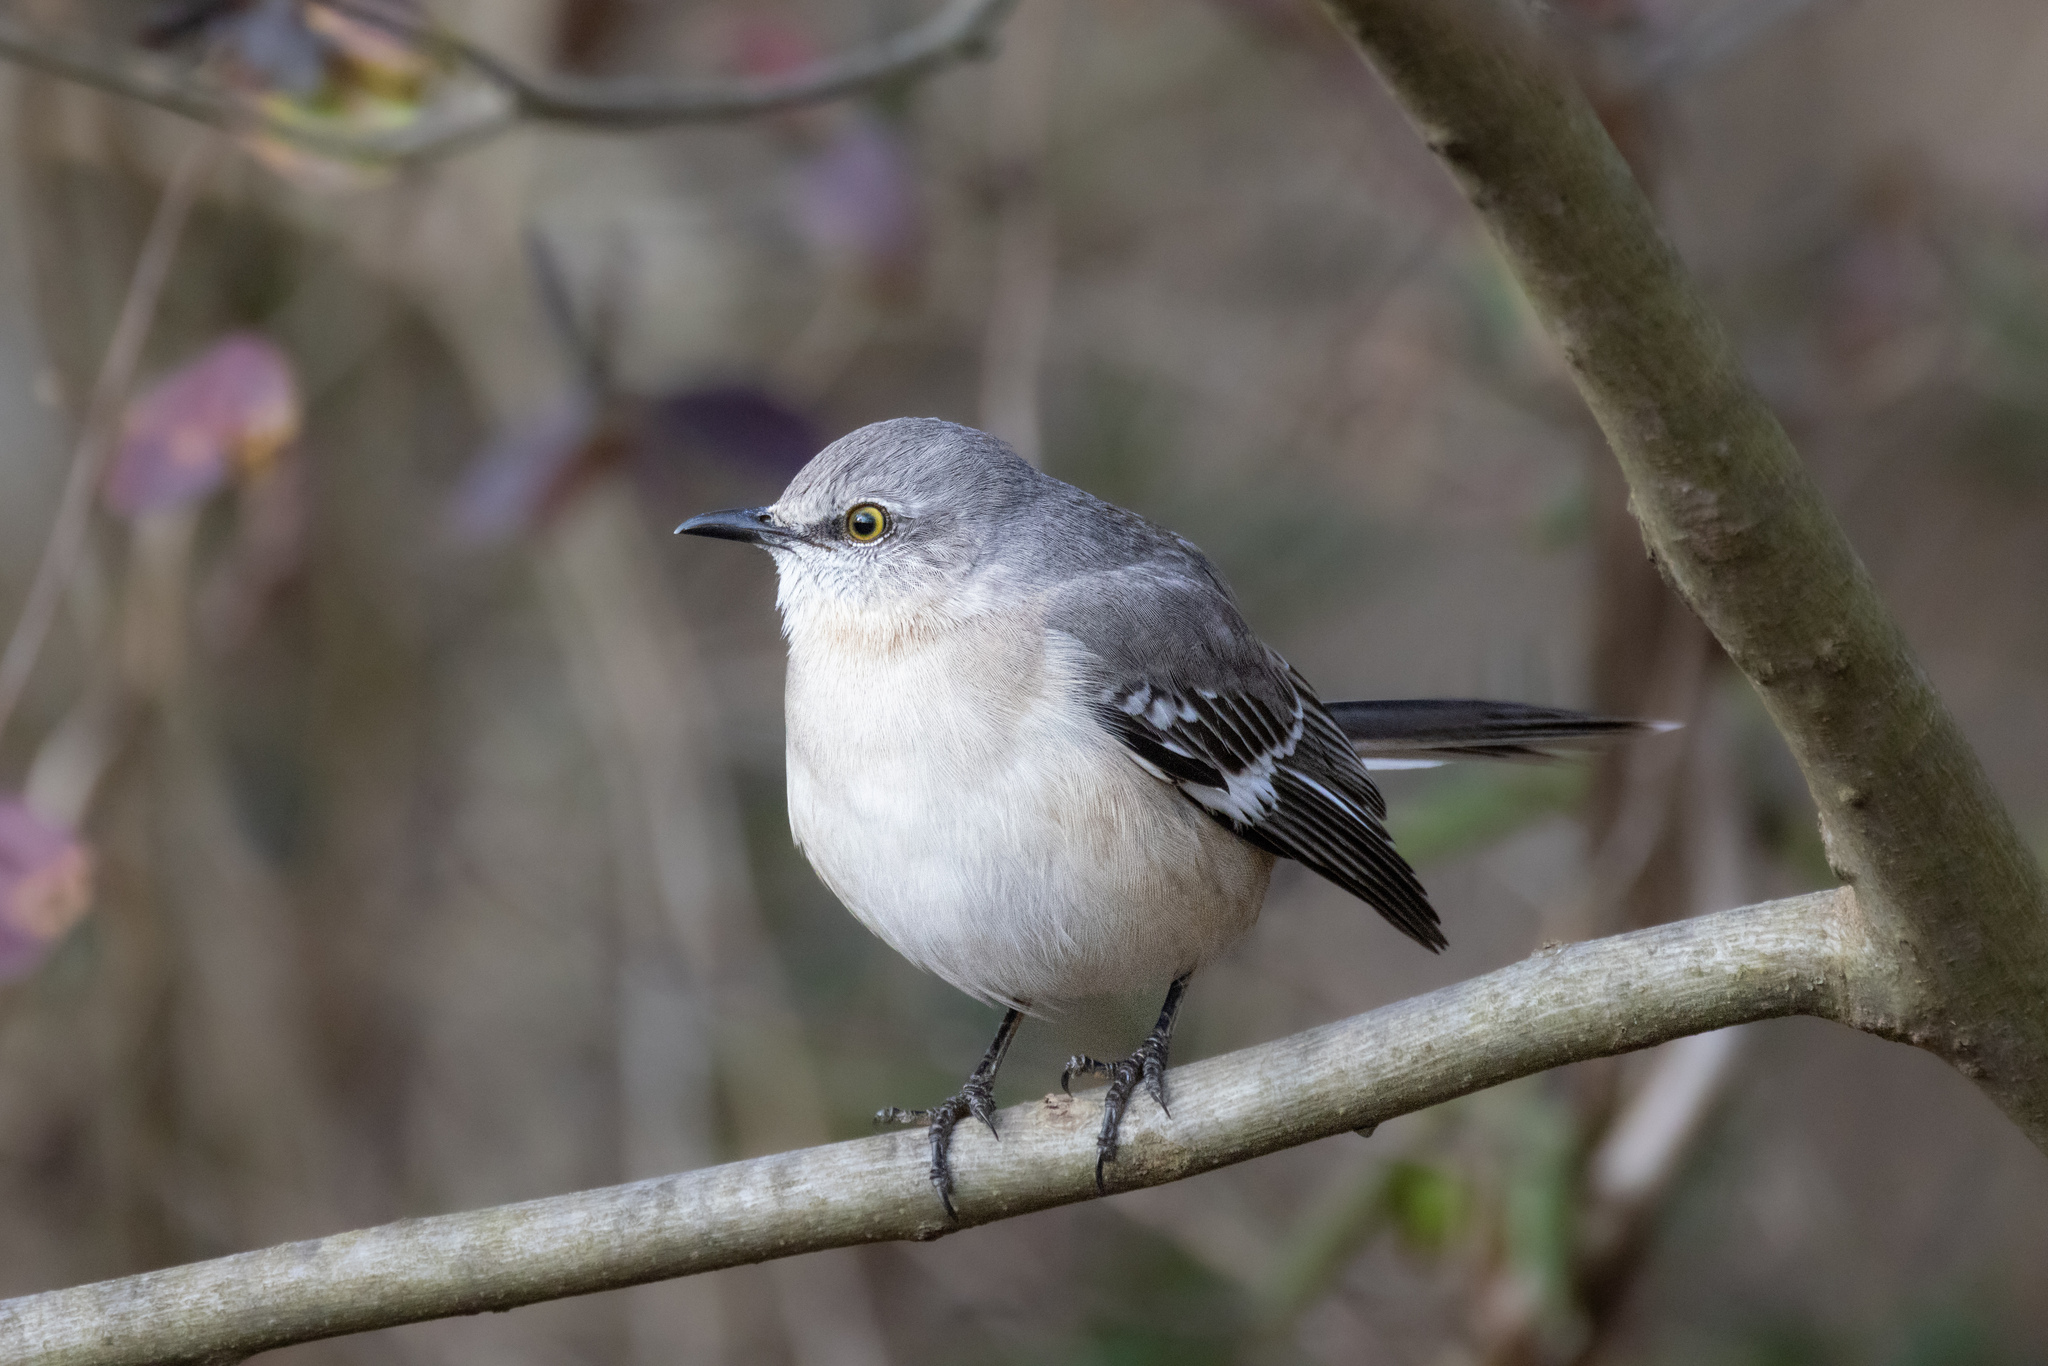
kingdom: Animalia
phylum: Chordata
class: Aves
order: Passeriformes
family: Mimidae
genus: Mimus
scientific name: Mimus polyglottos
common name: Northern mockingbird
